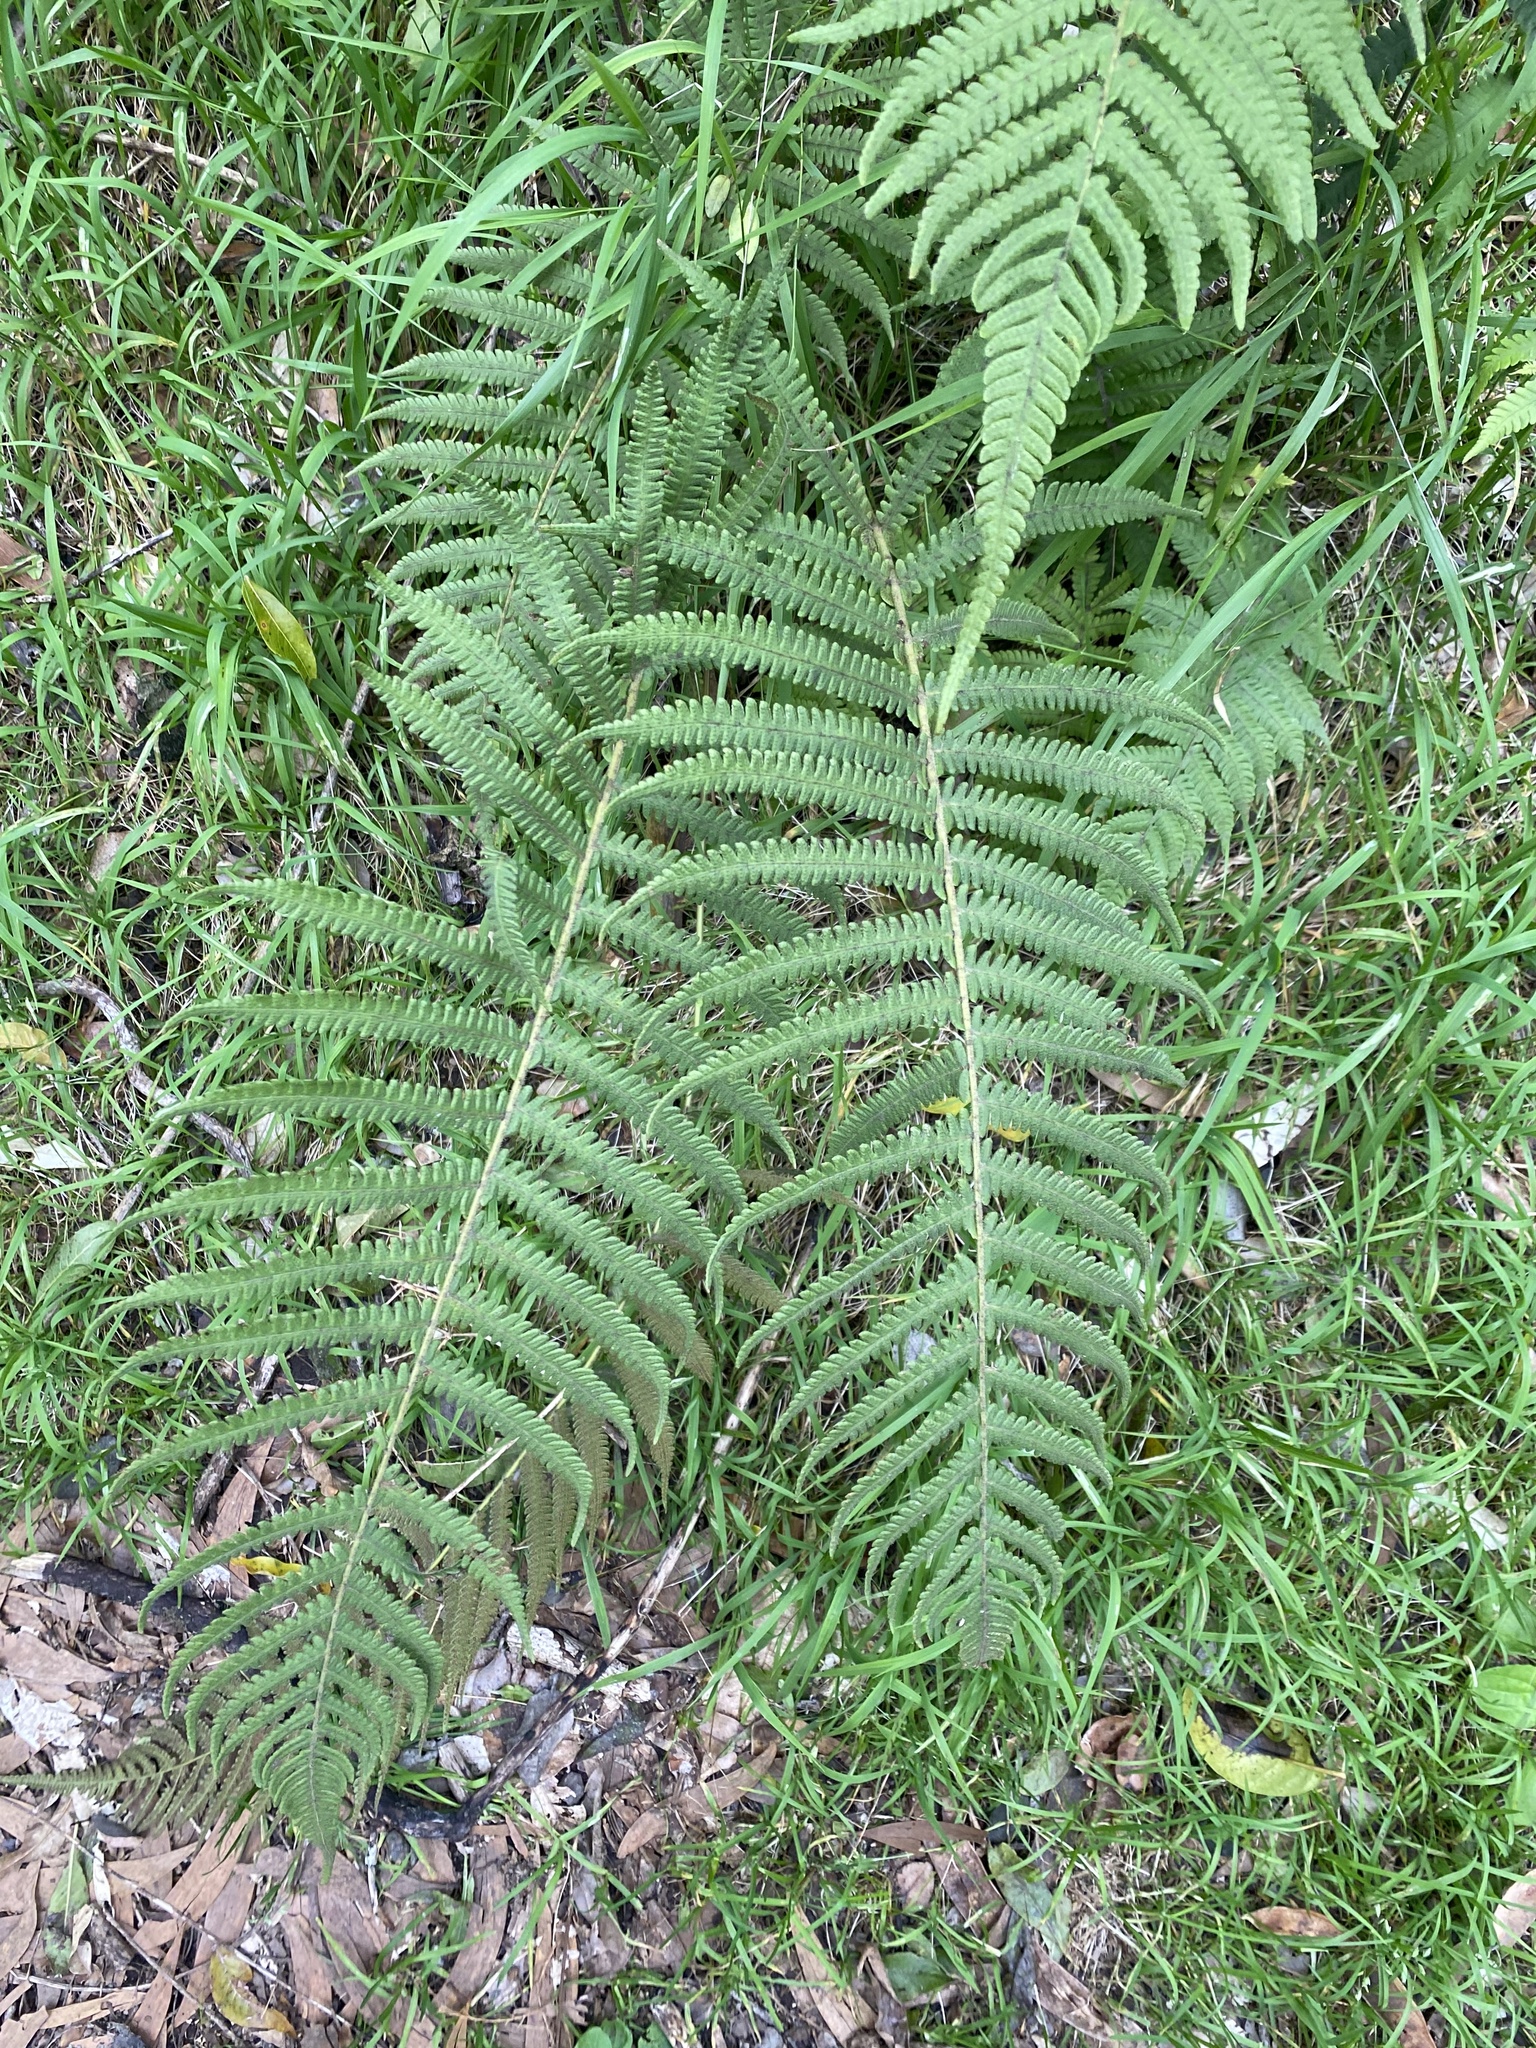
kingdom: Plantae
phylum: Tracheophyta
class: Polypodiopsida
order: Polypodiales
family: Thelypteridaceae
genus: Christella
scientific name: Christella parasitica
